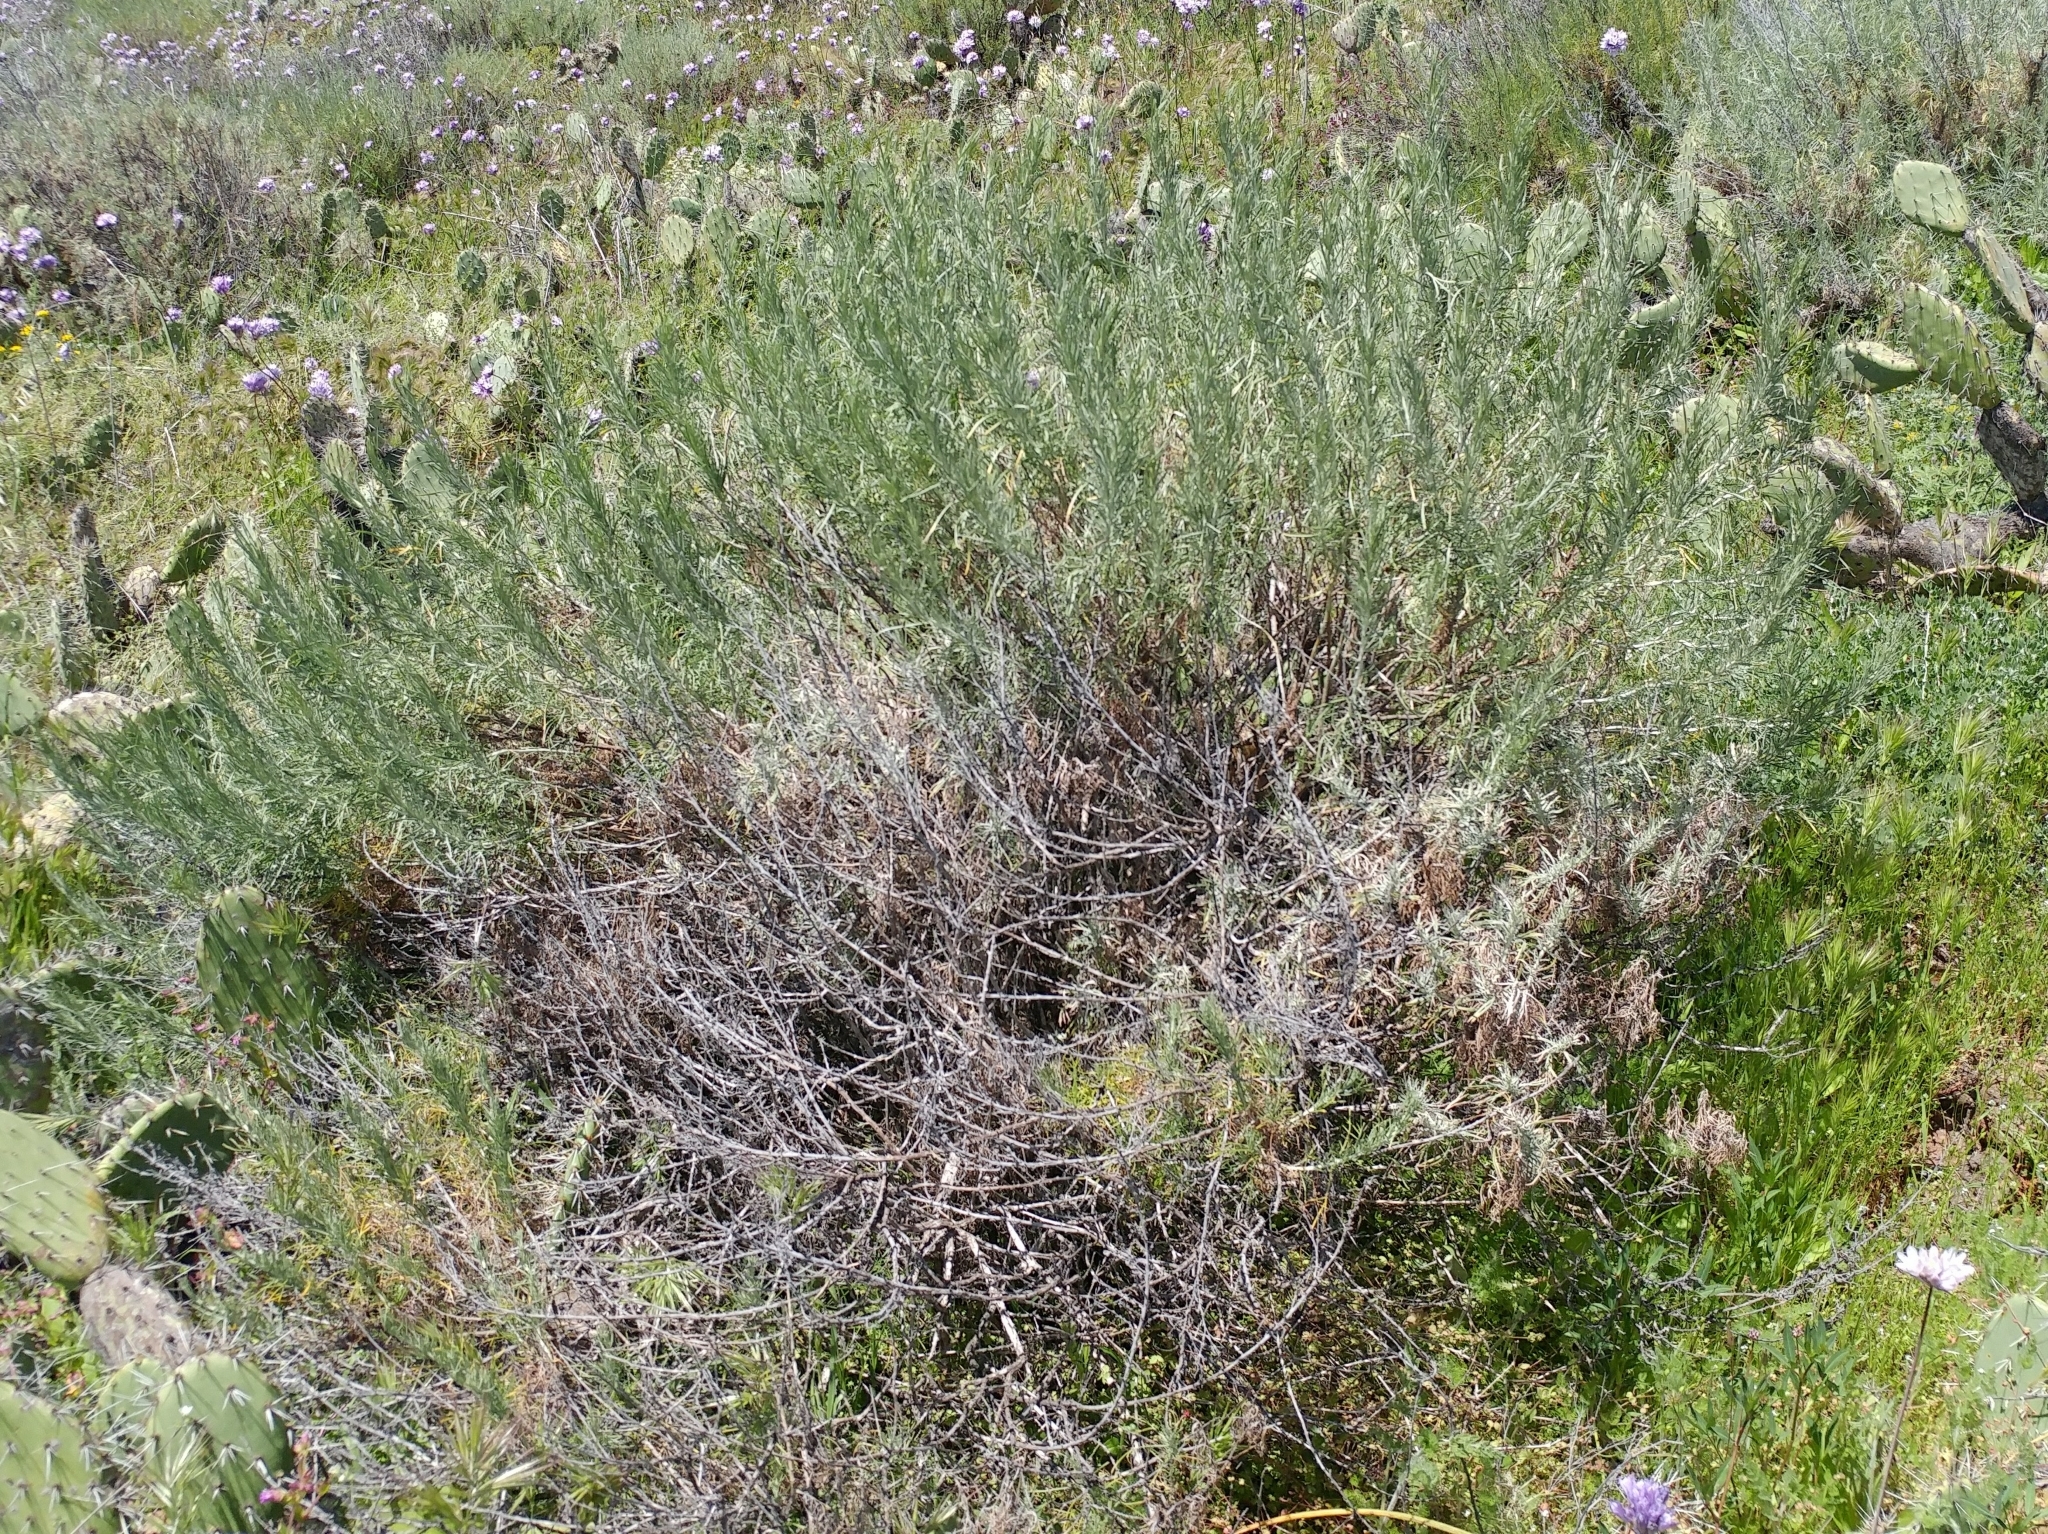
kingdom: Plantae
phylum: Tracheophyta
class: Magnoliopsida
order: Asterales
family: Asteraceae
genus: Artemisia
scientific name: Artemisia californica
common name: California sagebrush
